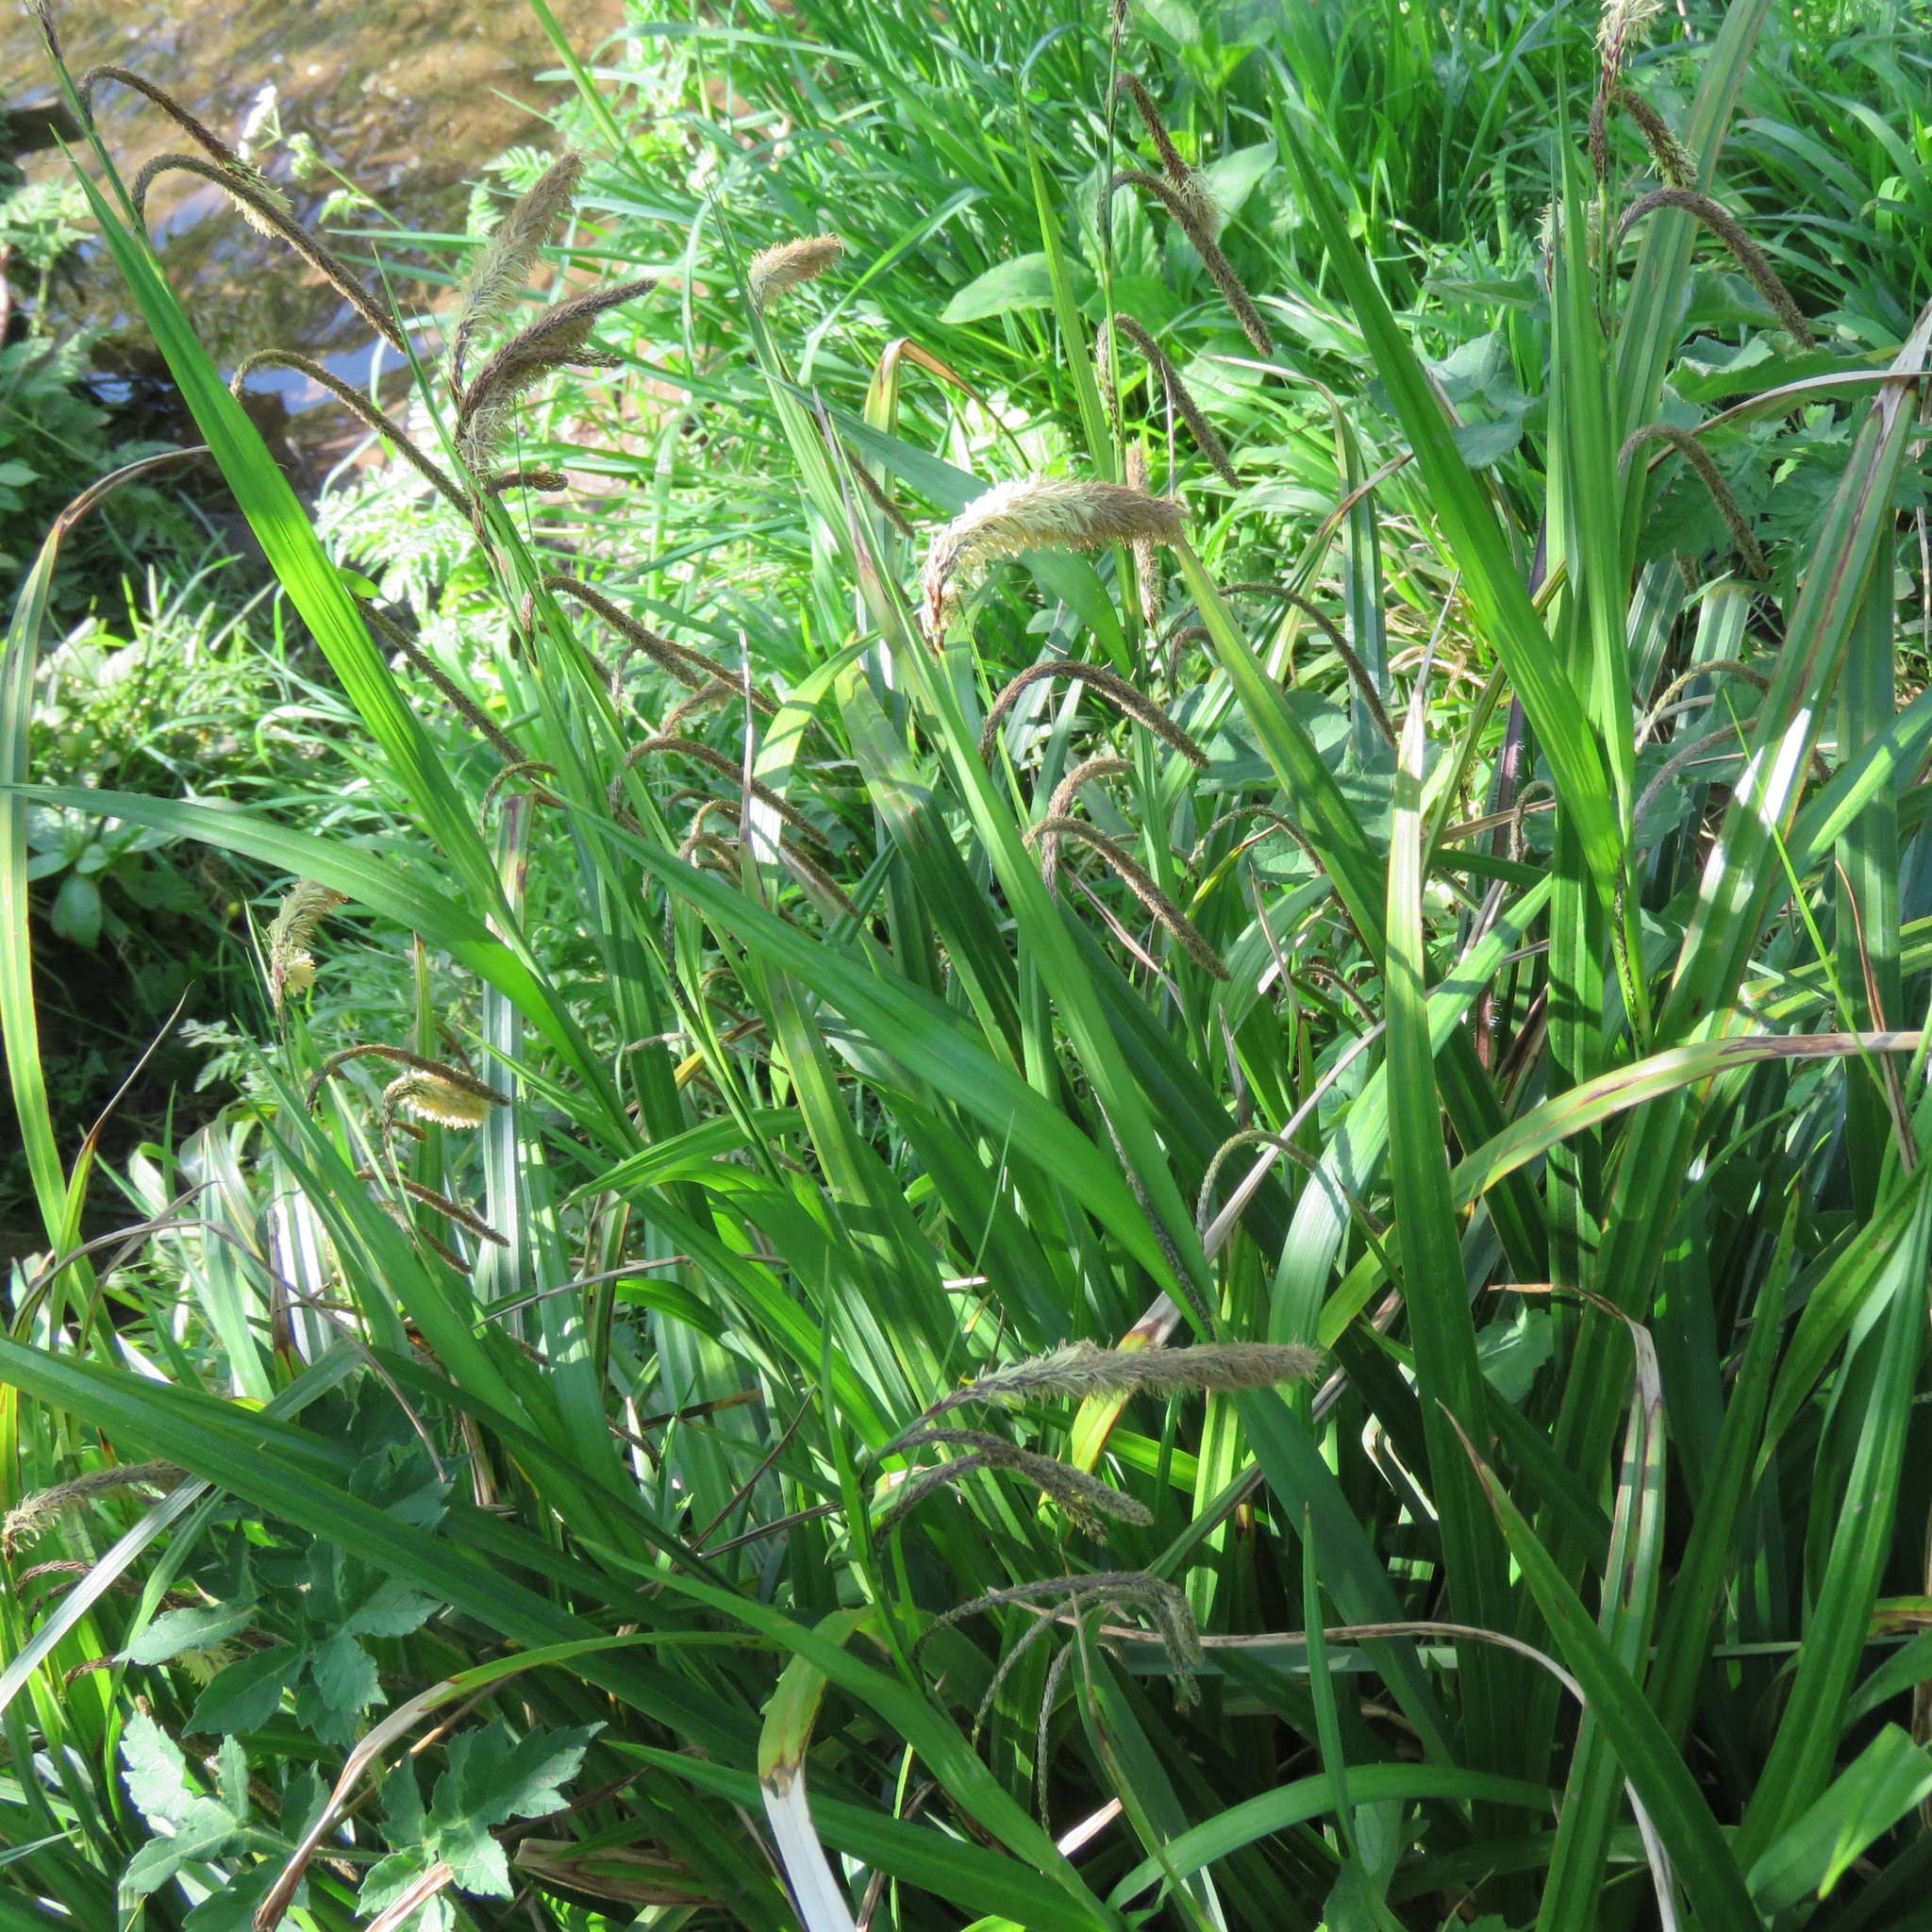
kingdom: Plantae
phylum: Tracheophyta
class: Liliopsida
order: Poales
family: Cyperaceae
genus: Carex
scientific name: Carex pendula
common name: Pendulous sedge
